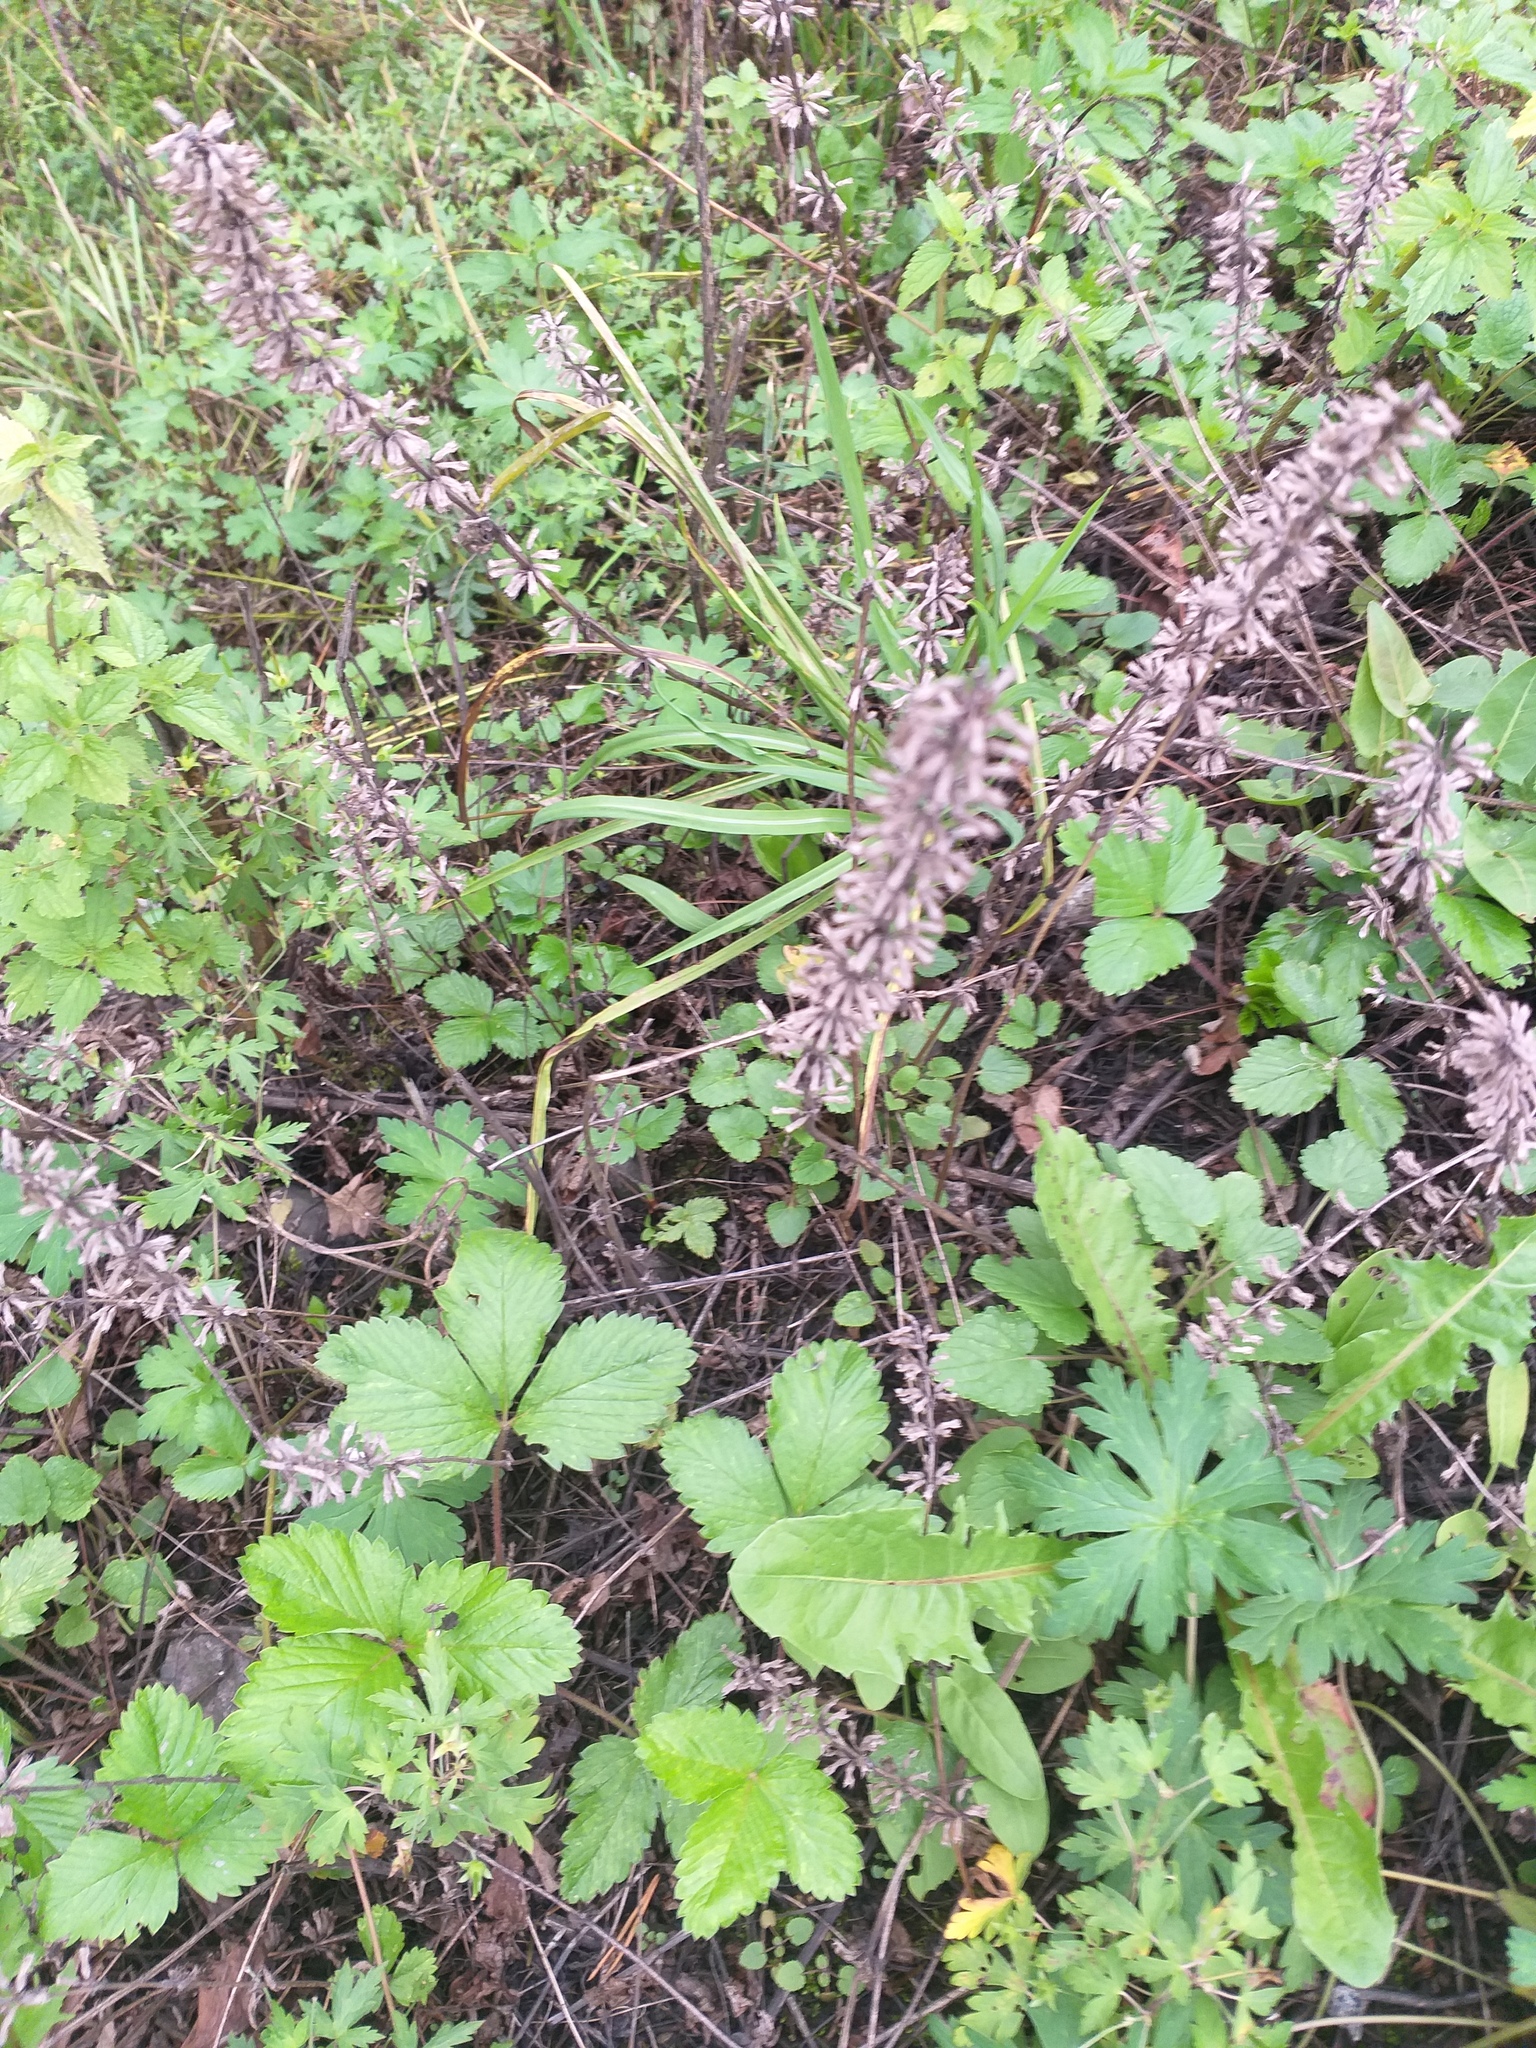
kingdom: Plantae
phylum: Tracheophyta
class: Magnoliopsida
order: Lamiales
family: Lamiaceae
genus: Dracocephalum
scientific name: Dracocephalum nutans
